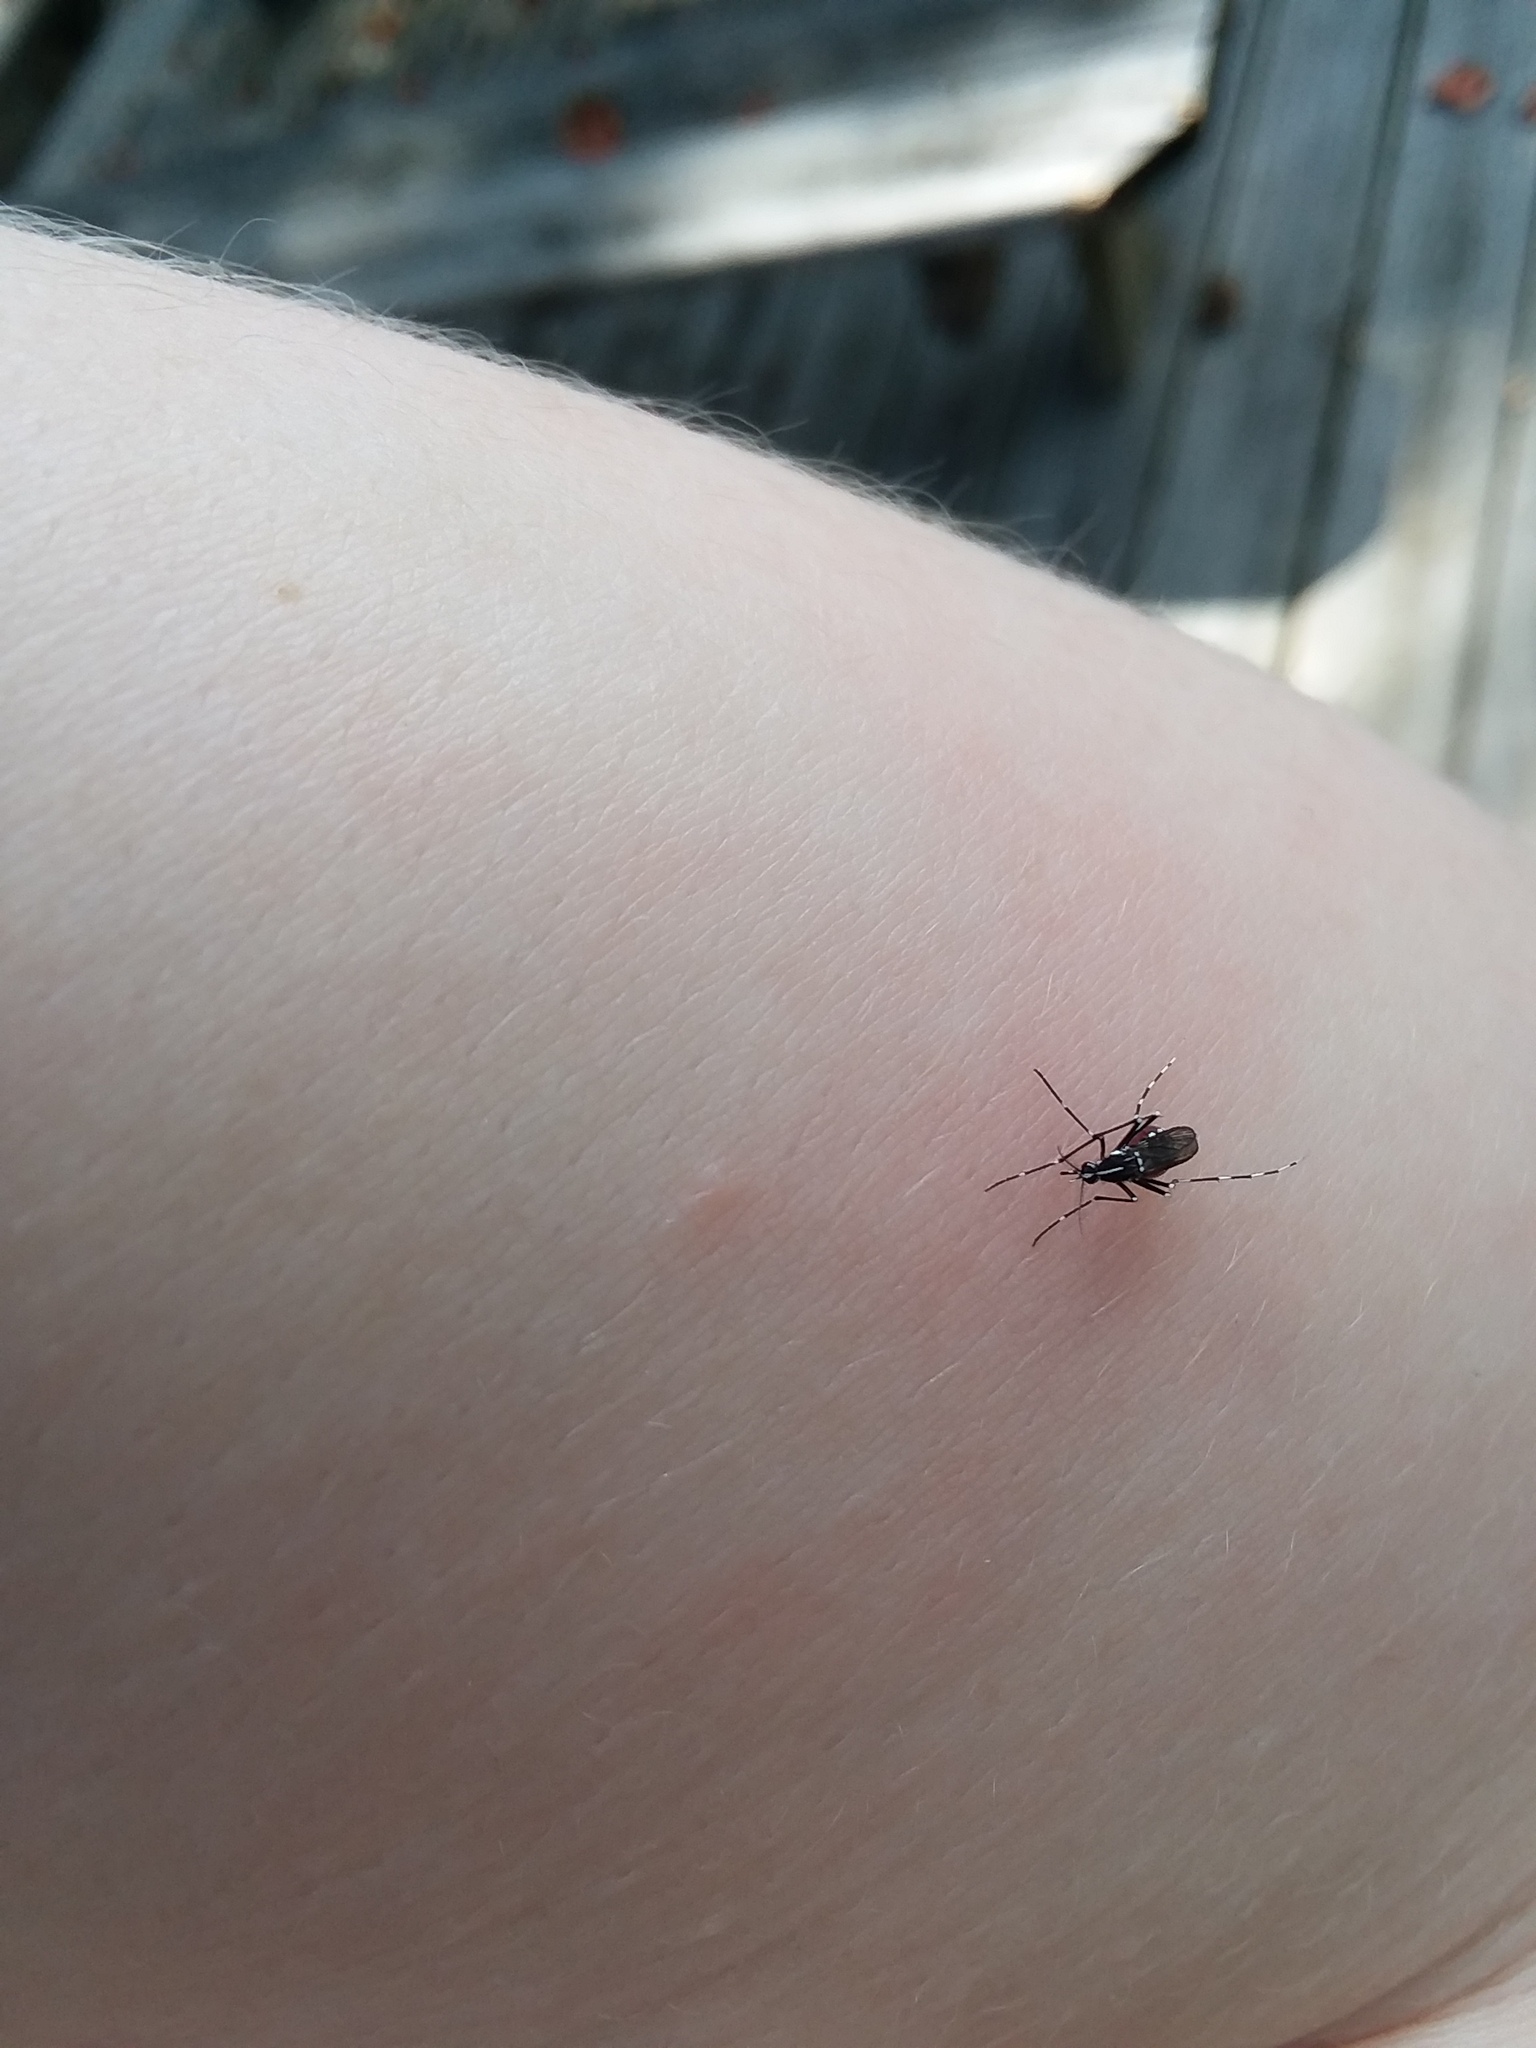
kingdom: Animalia
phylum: Arthropoda
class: Insecta
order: Diptera
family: Culicidae
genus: Aedes
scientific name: Aedes albopictus
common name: Tiger mosquito
